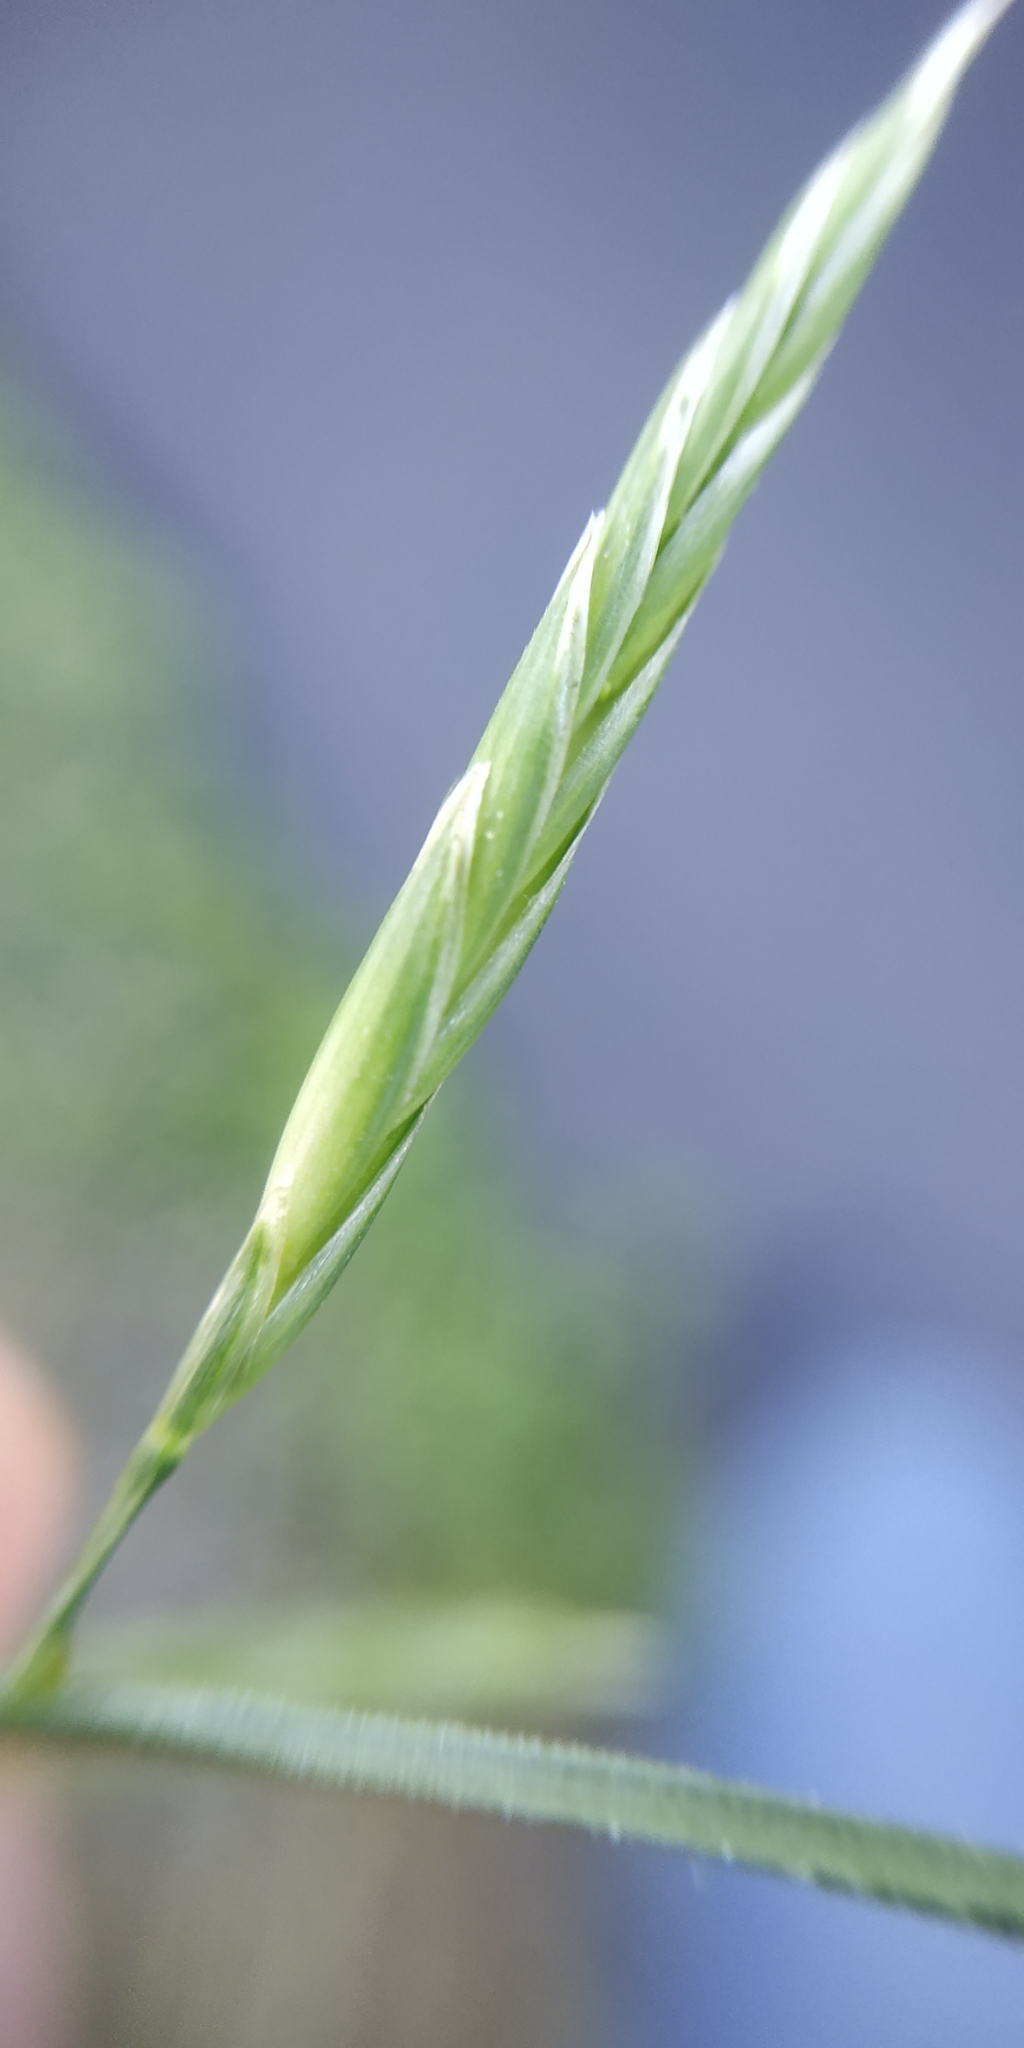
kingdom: Plantae
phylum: Tracheophyta
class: Liliopsida
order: Poales
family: Poaceae
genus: Lolium
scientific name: Lolium pratense
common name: Dover grass
